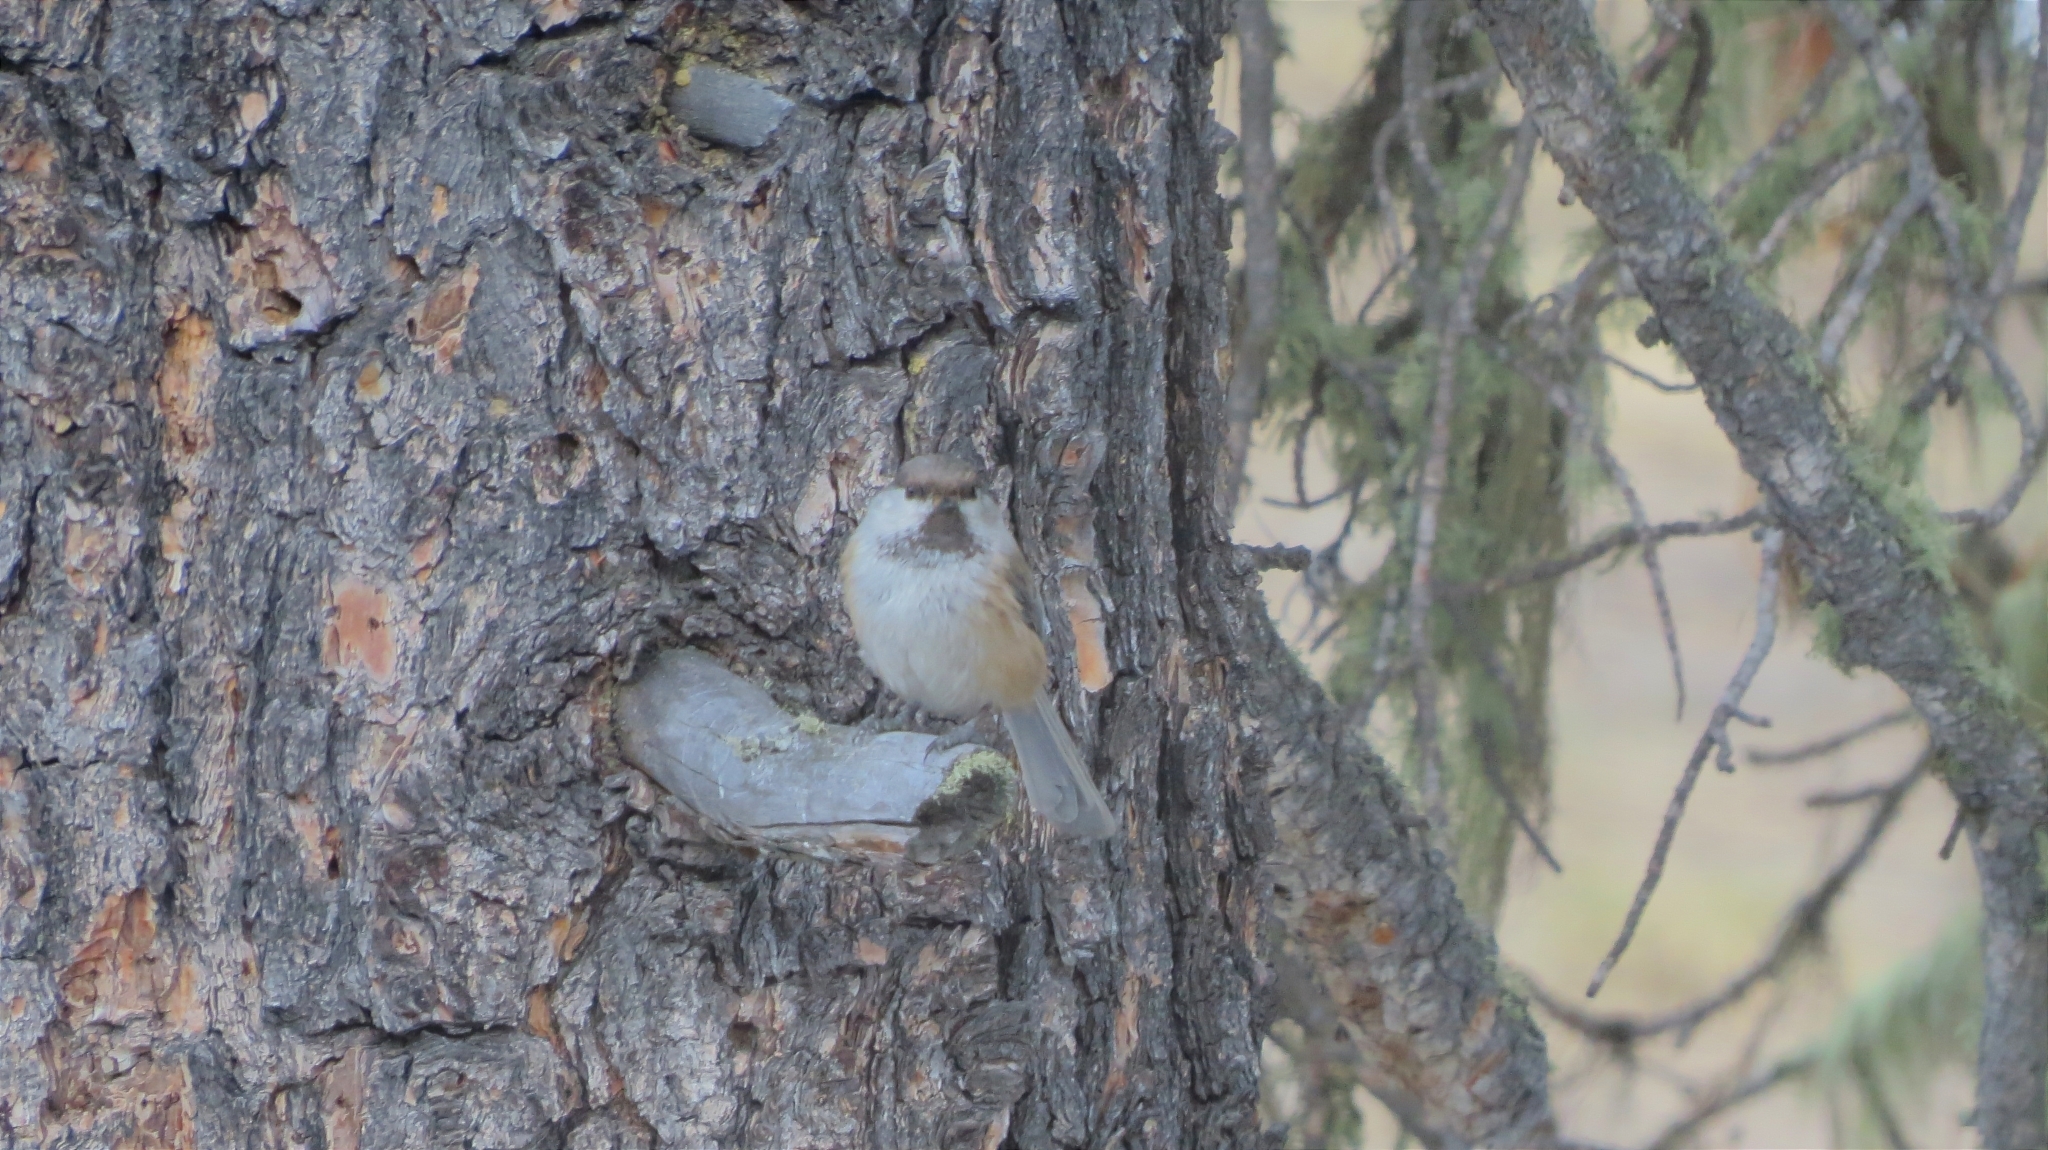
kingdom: Animalia
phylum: Chordata
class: Aves
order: Passeriformes
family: Paridae
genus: Poecile
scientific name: Poecile cinctus
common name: Gray-headed chickadee
